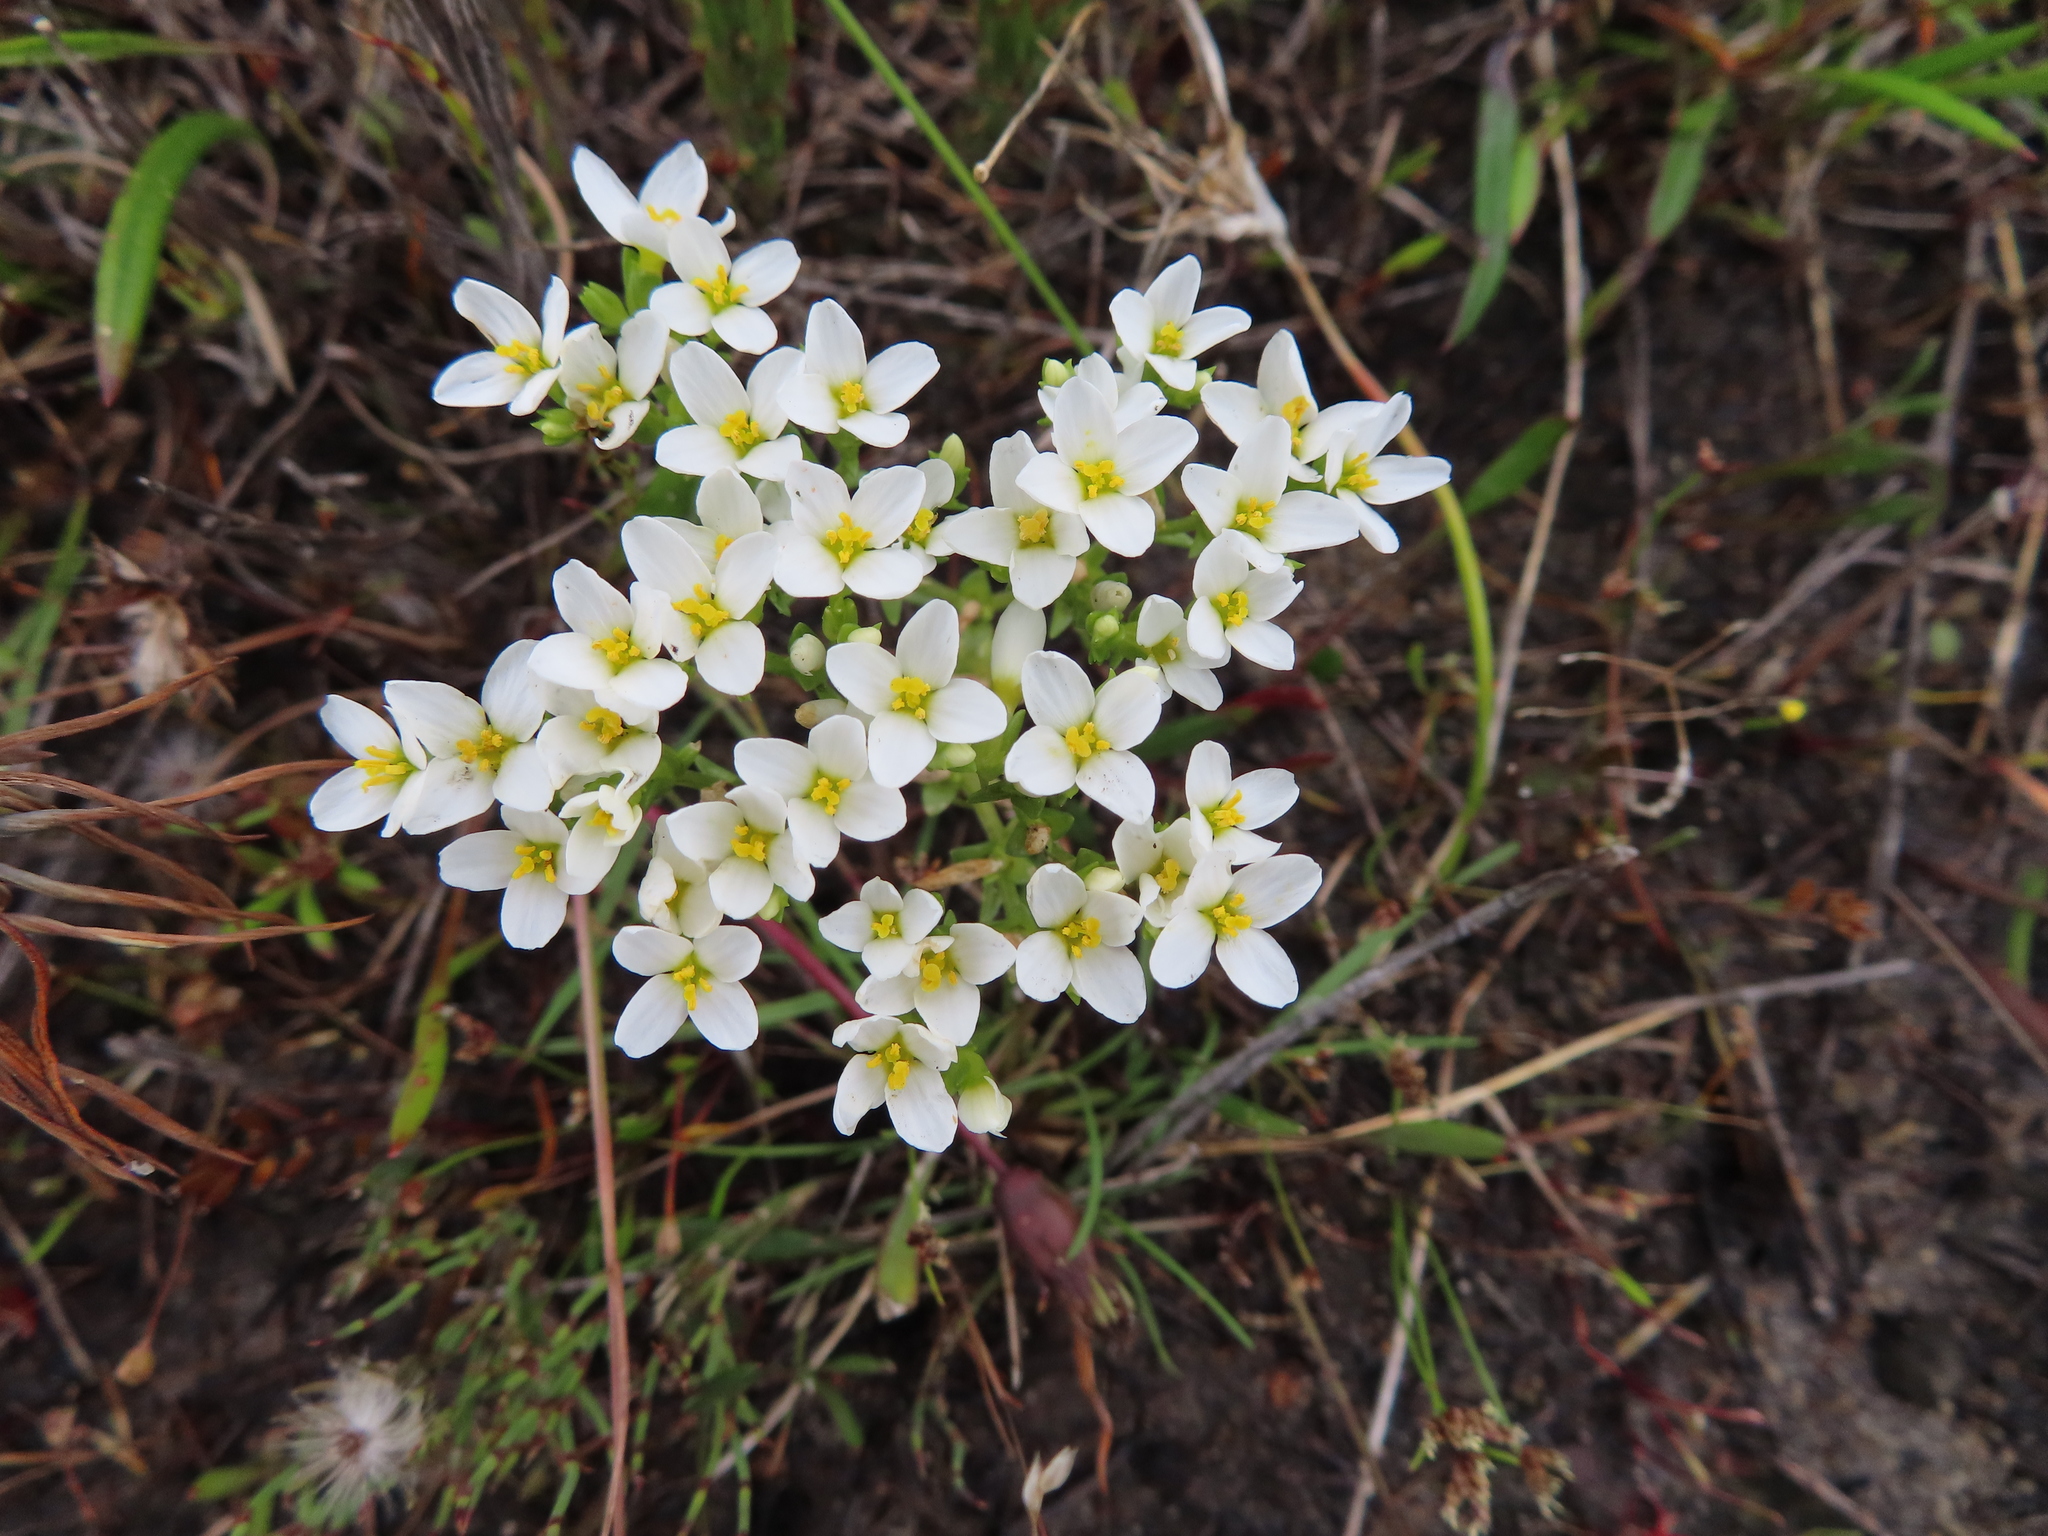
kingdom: Plantae
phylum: Tracheophyta
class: Magnoliopsida
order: Gentianales
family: Gentianaceae
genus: Sebaea
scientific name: Sebaea albens
